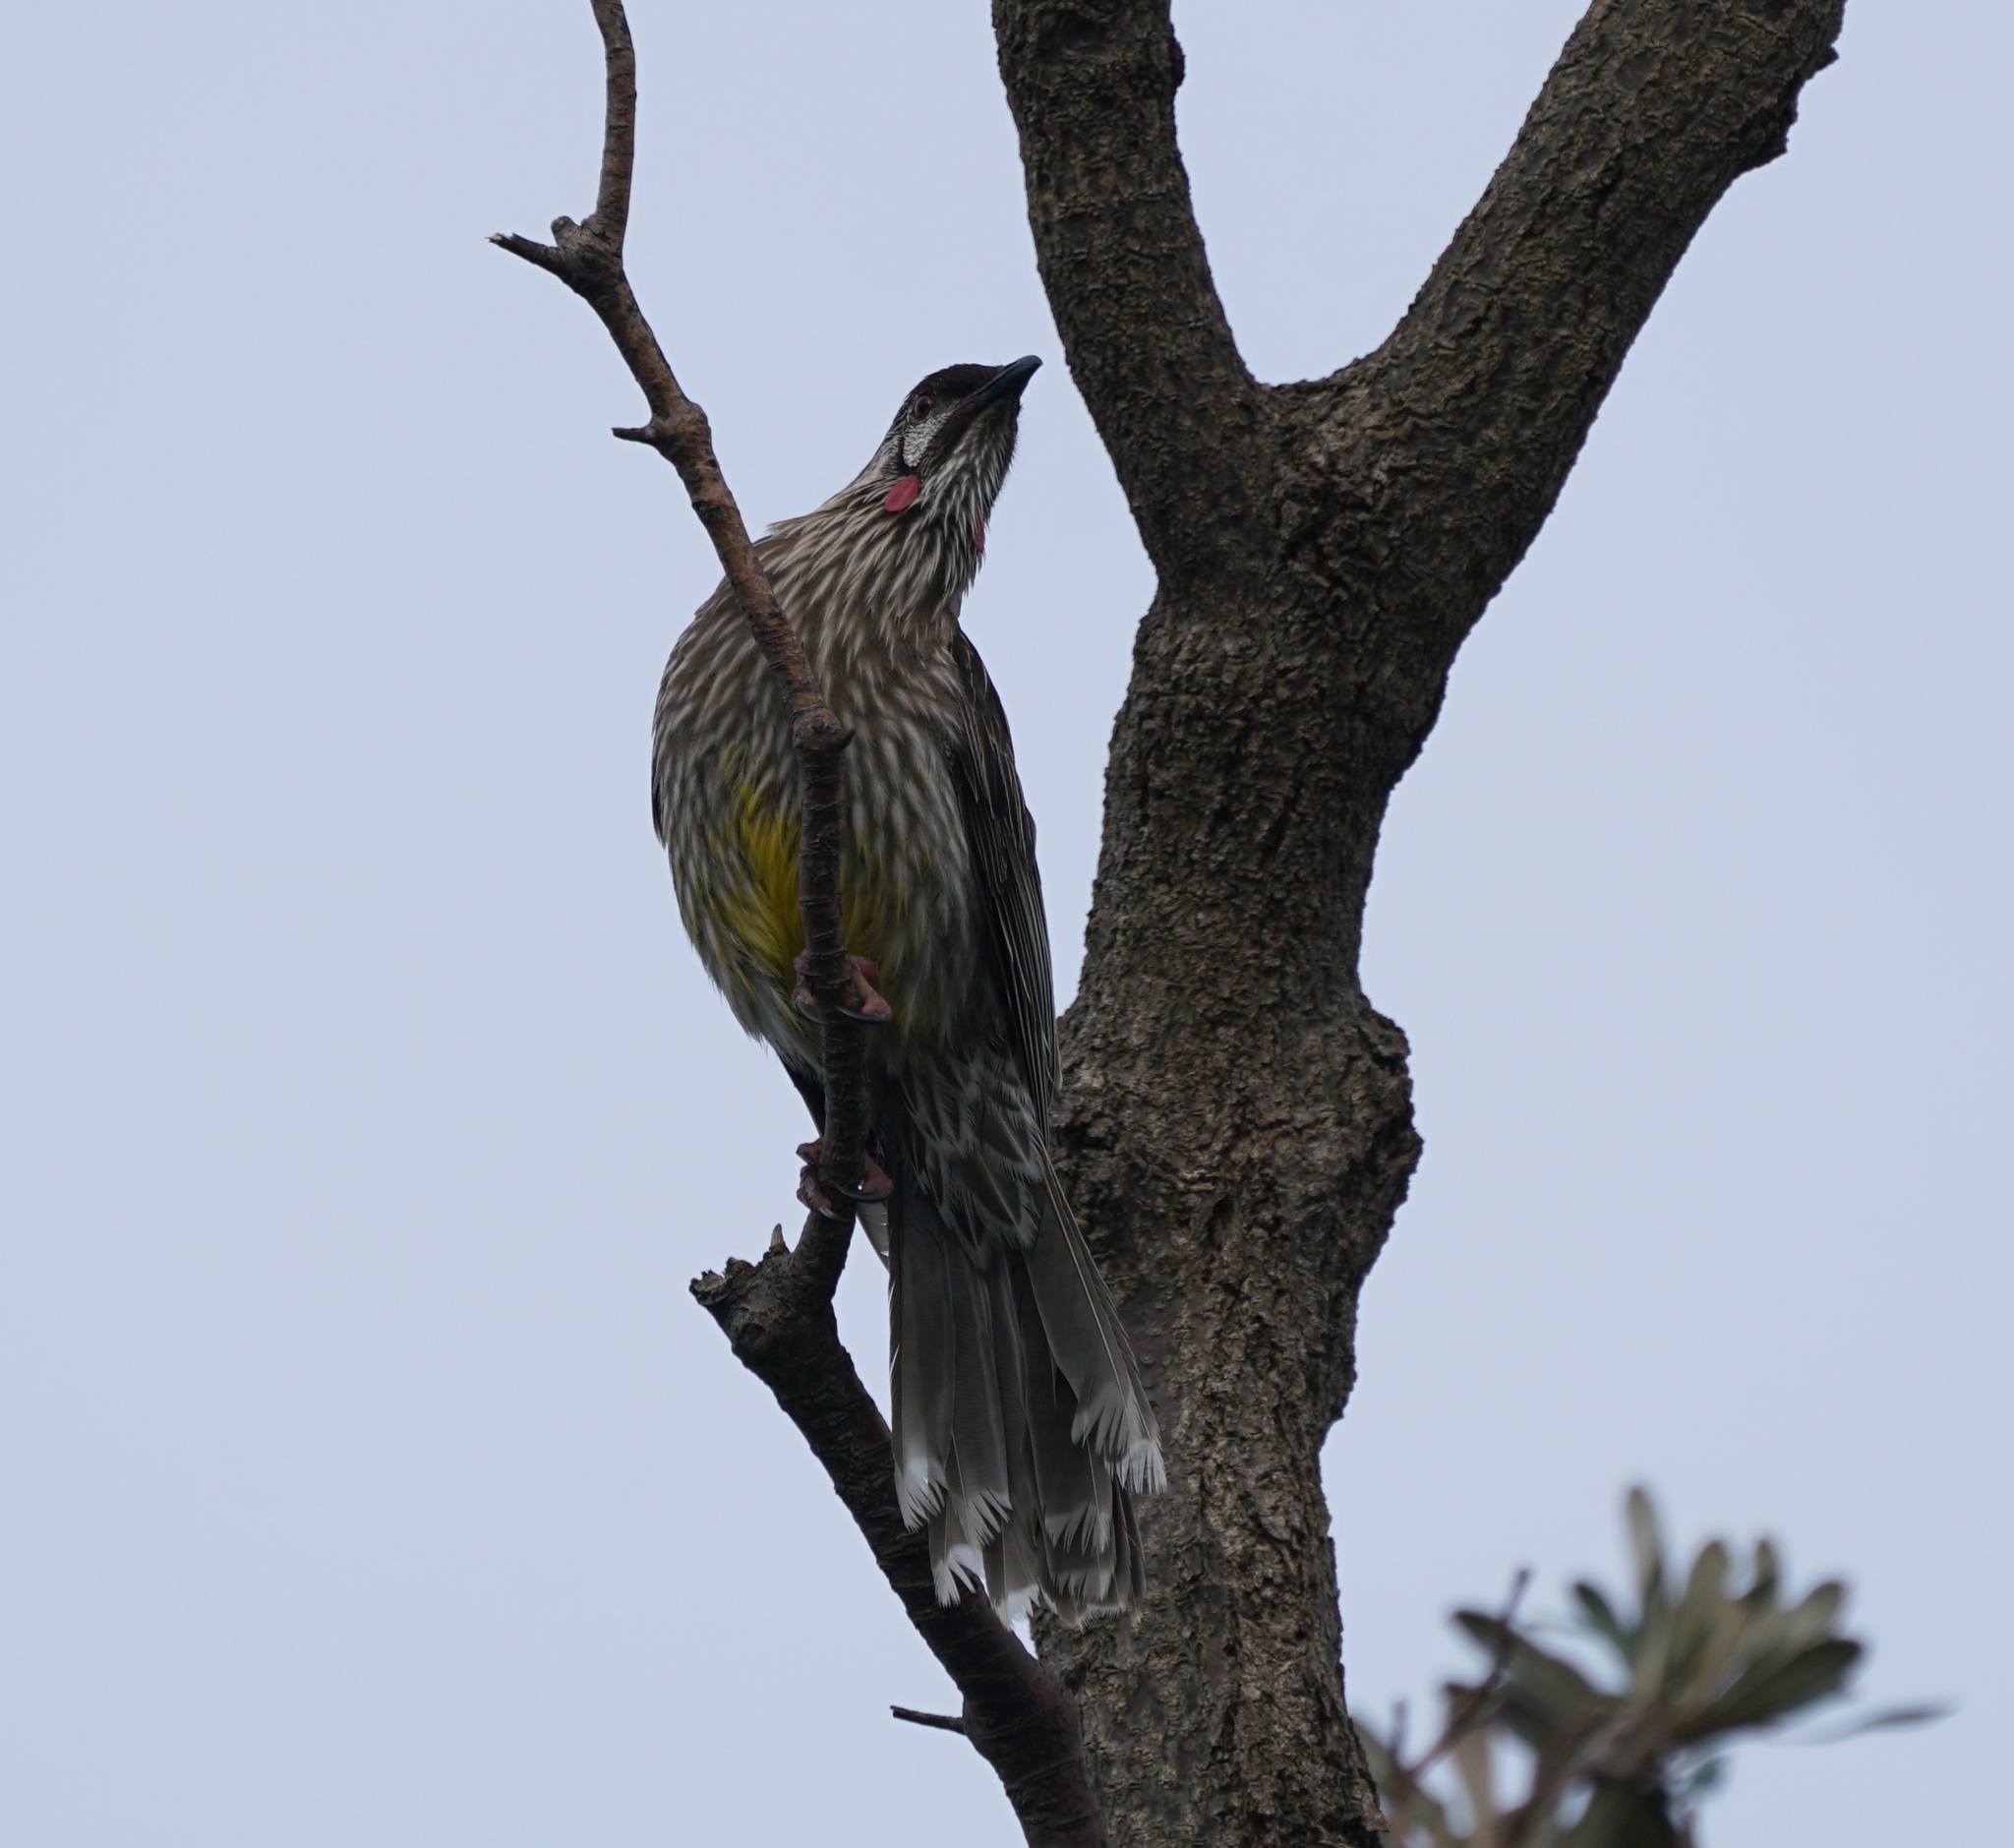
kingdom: Animalia
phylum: Chordata
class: Aves
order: Passeriformes
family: Meliphagidae
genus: Anthochaera
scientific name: Anthochaera carunculata
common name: Red wattlebird
